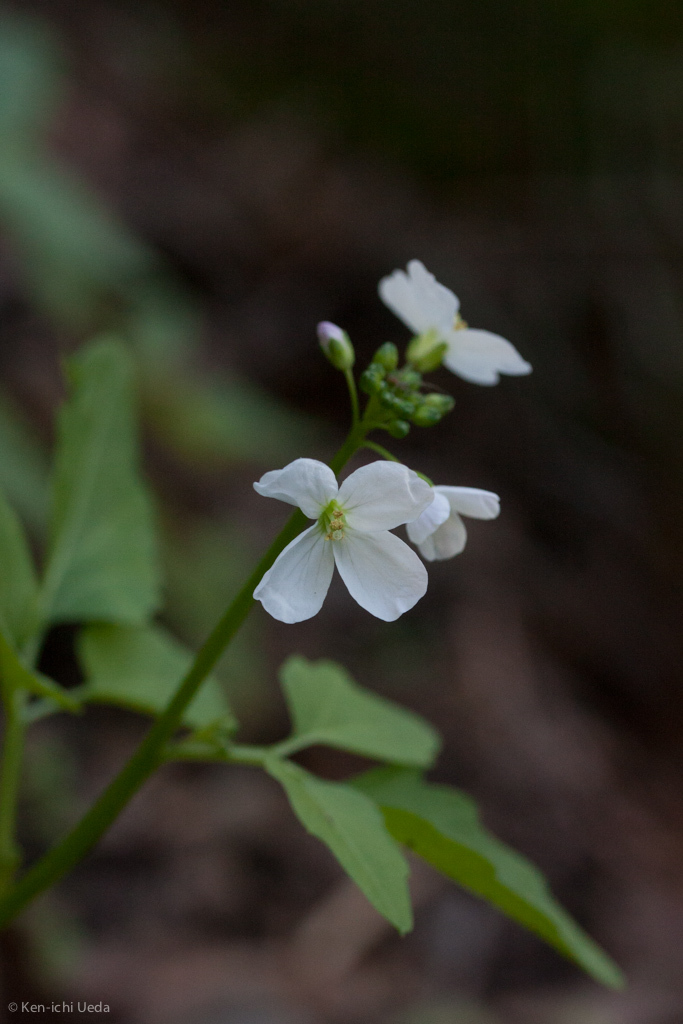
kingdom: Plantae
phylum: Tracheophyta
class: Magnoliopsida
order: Brassicales
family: Brassicaceae
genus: Cardamine
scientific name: Cardamine californica
